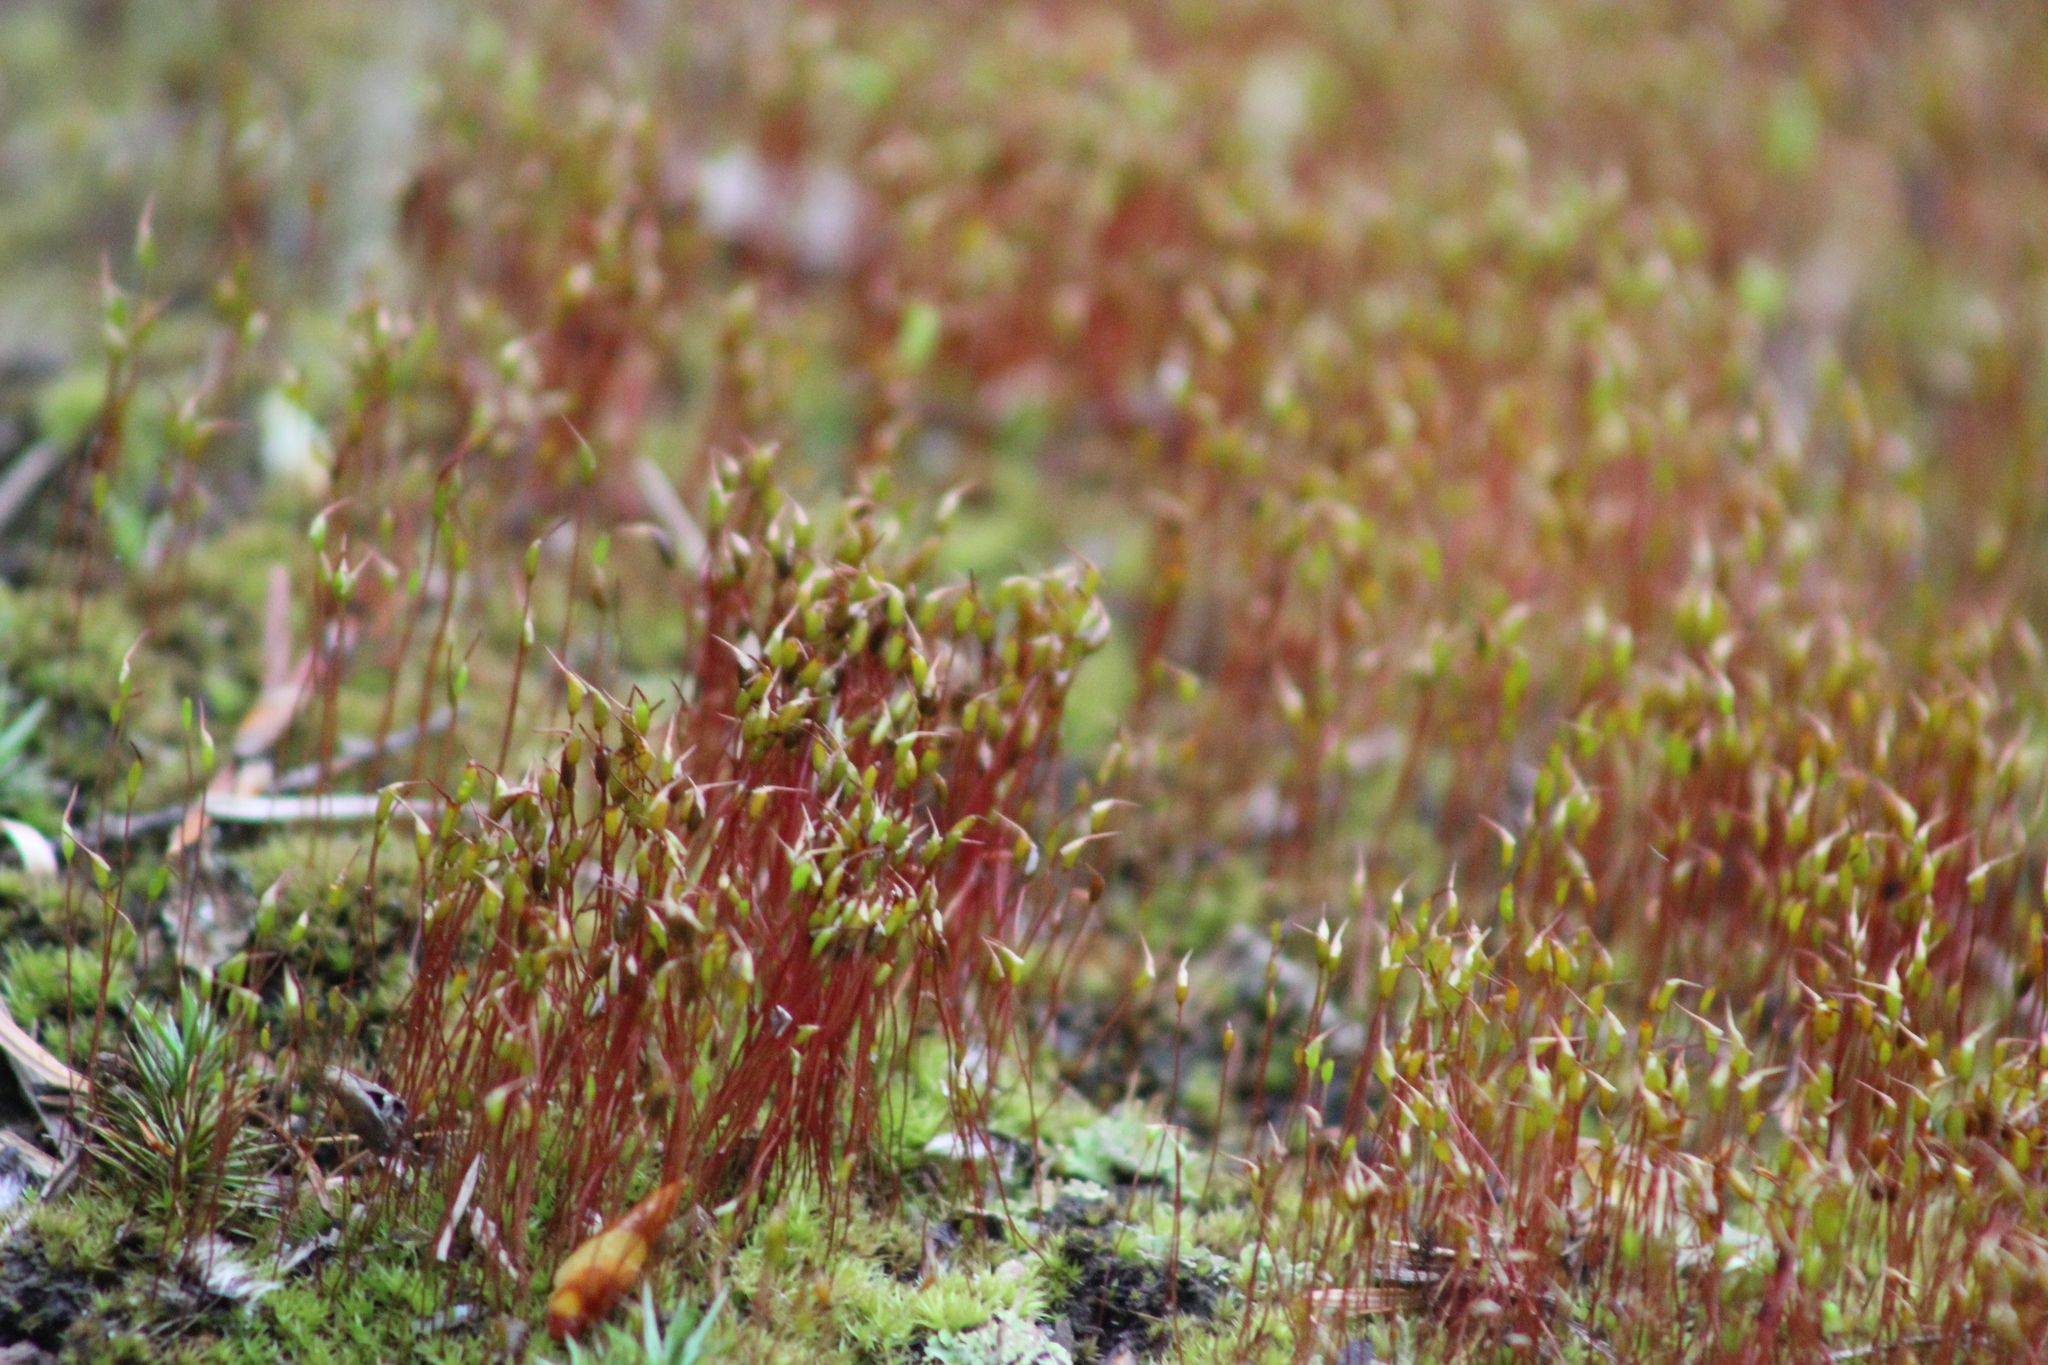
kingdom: Plantae
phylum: Bryophyta
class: Bryopsida
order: Dicranales
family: Ditrichaceae
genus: Ceratodon
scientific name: Ceratodon purpureus
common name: Redshank
